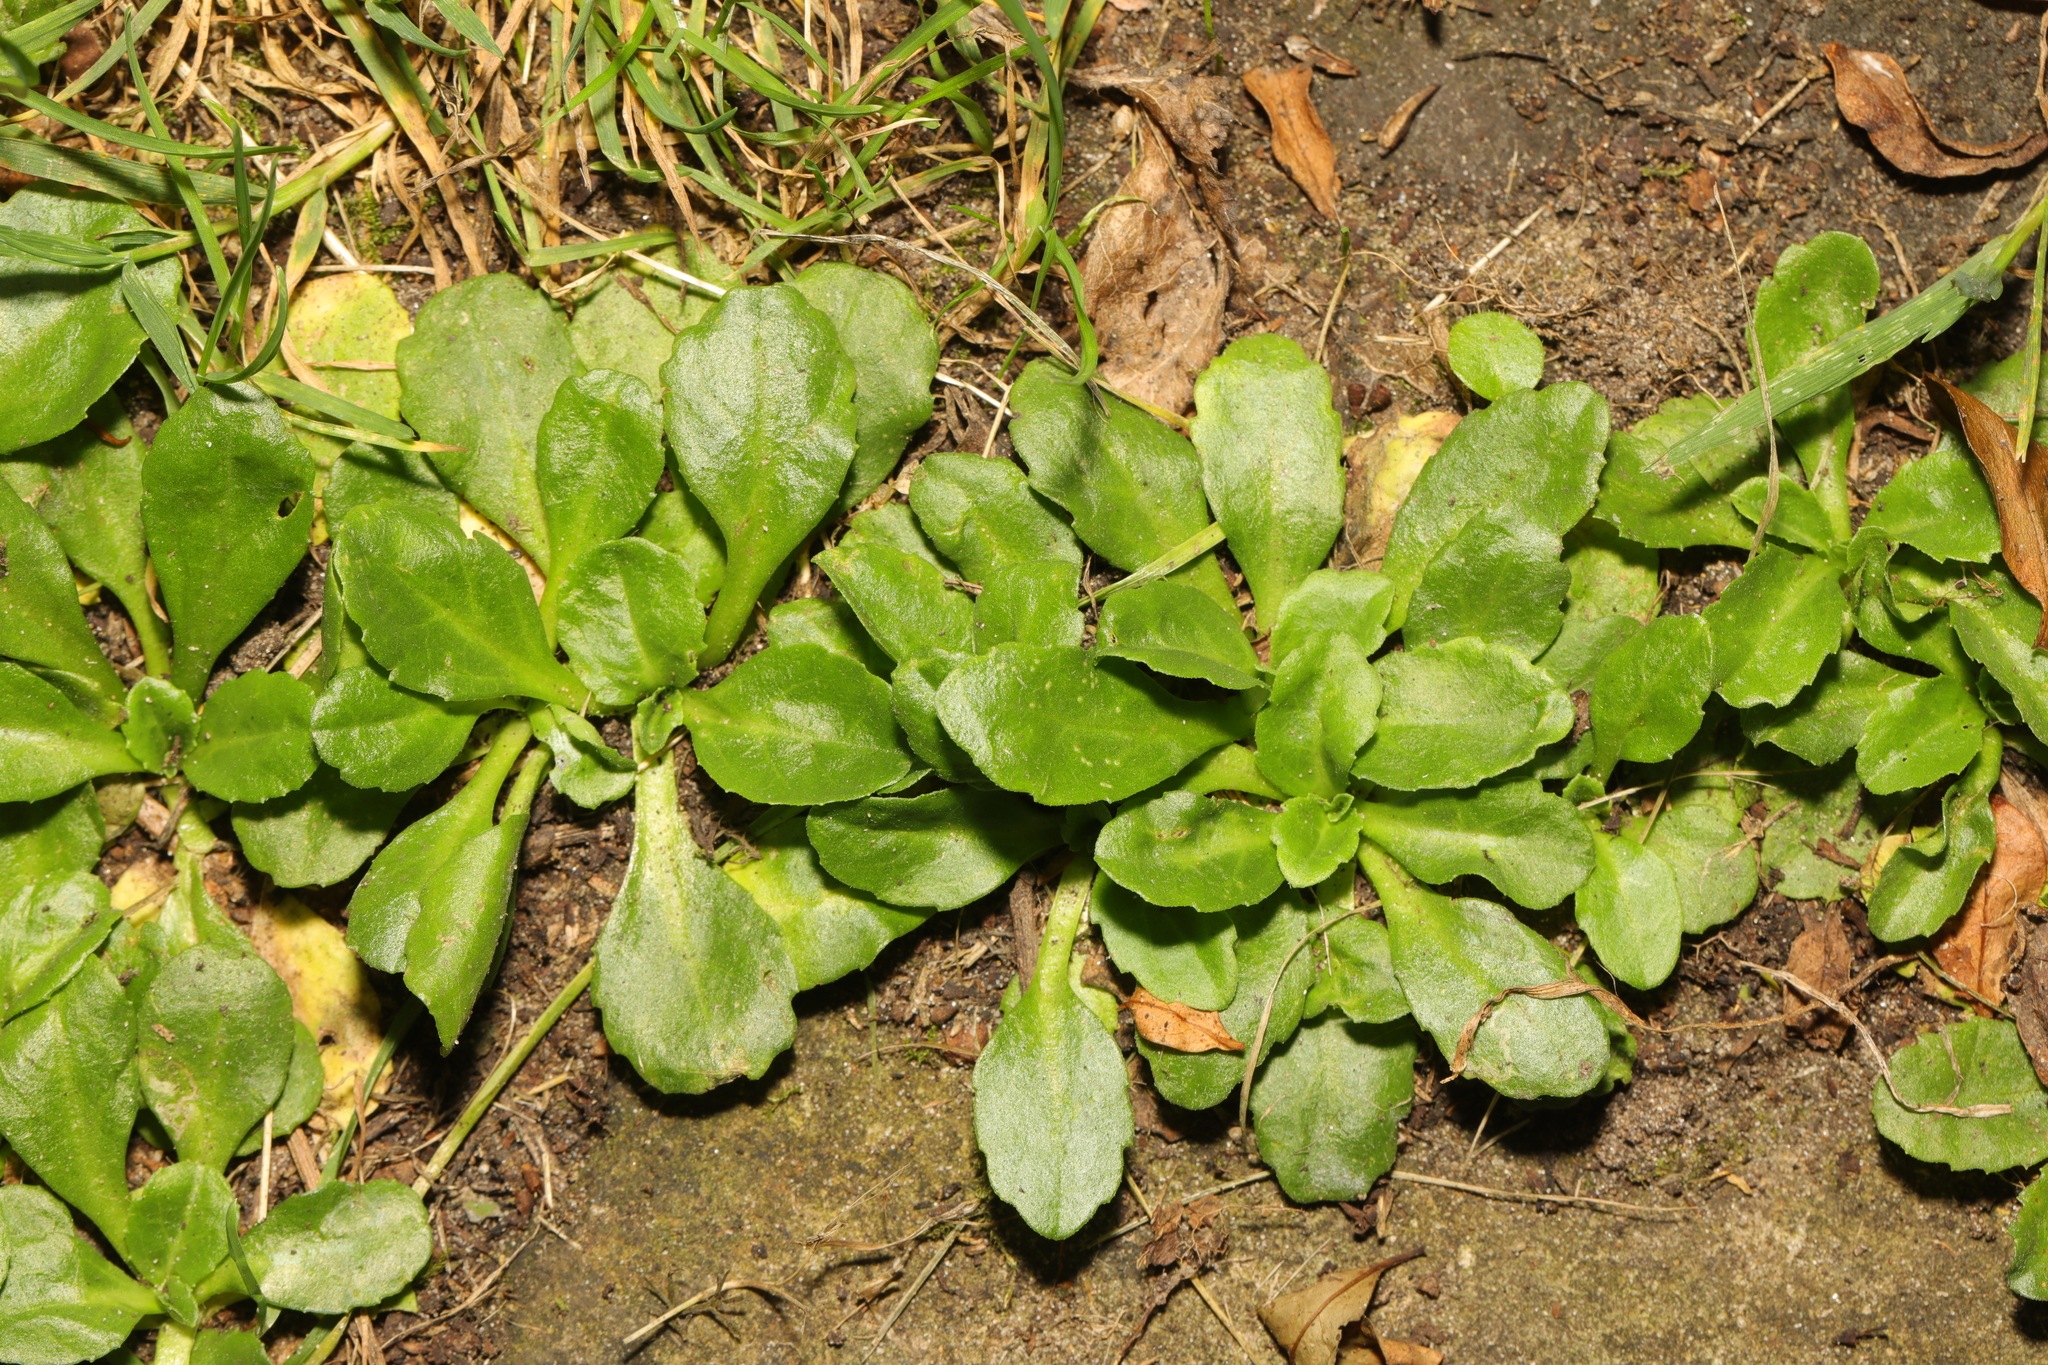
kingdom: Plantae
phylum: Tracheophyta
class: Magnoliopsida
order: Asterales
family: Asteraceae
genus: Bellis
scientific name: Bellis perennis
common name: Lawndaisy
